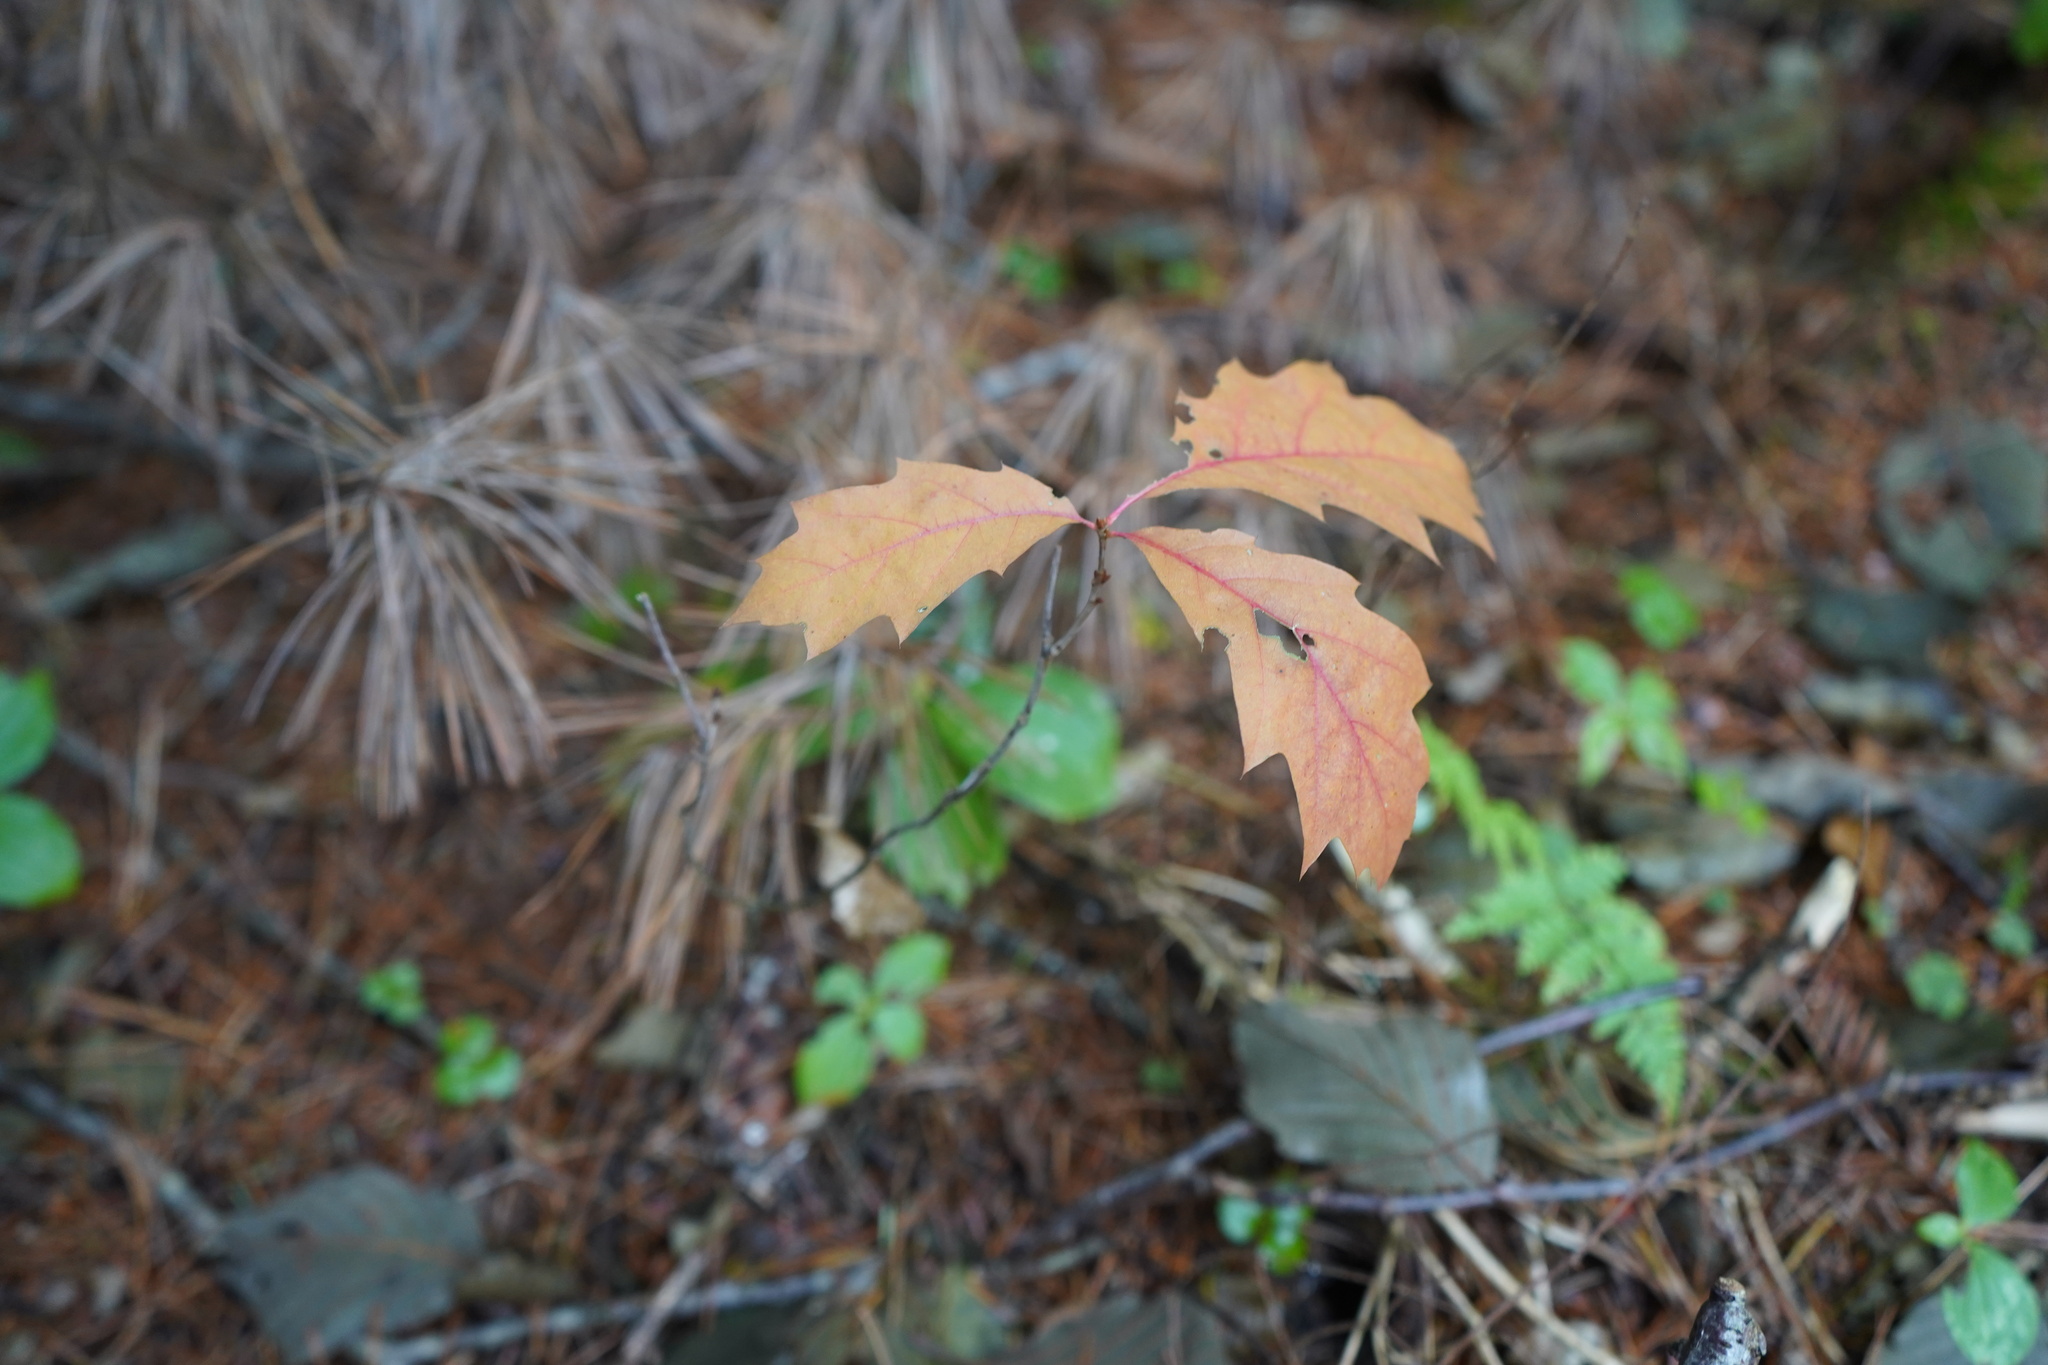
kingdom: Plantae
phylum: Tracheophyta
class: Magnoliopsida
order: Fagales
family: Fagaceae
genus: Quercus
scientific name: Quercus rubra
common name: Red oak
